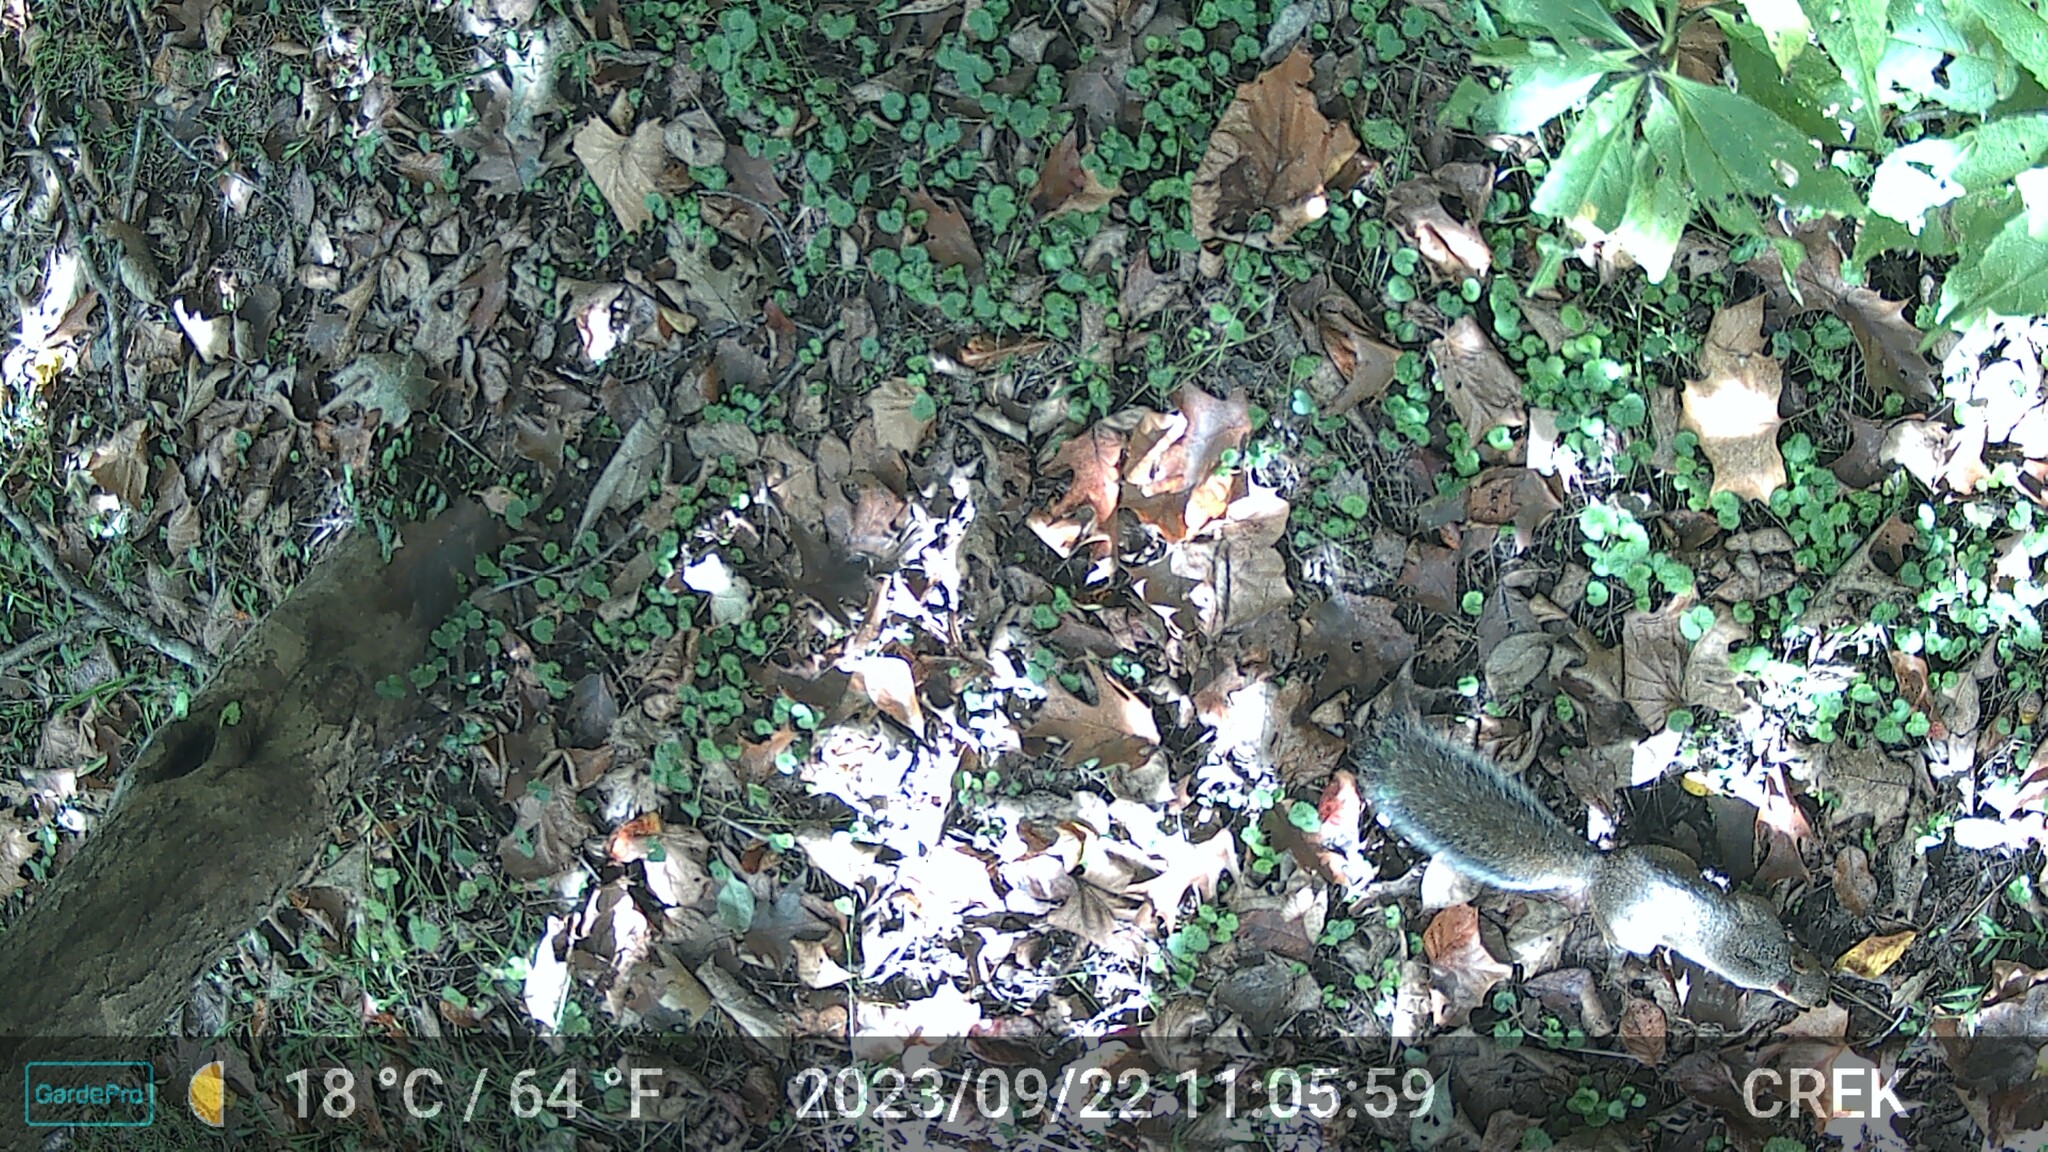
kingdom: Animalia
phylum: Chordata
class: Mammalia
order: Rodentia
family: Sciuridae
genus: Sciurus
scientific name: Sciurus carolinensis
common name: Eastern gray squirrel
